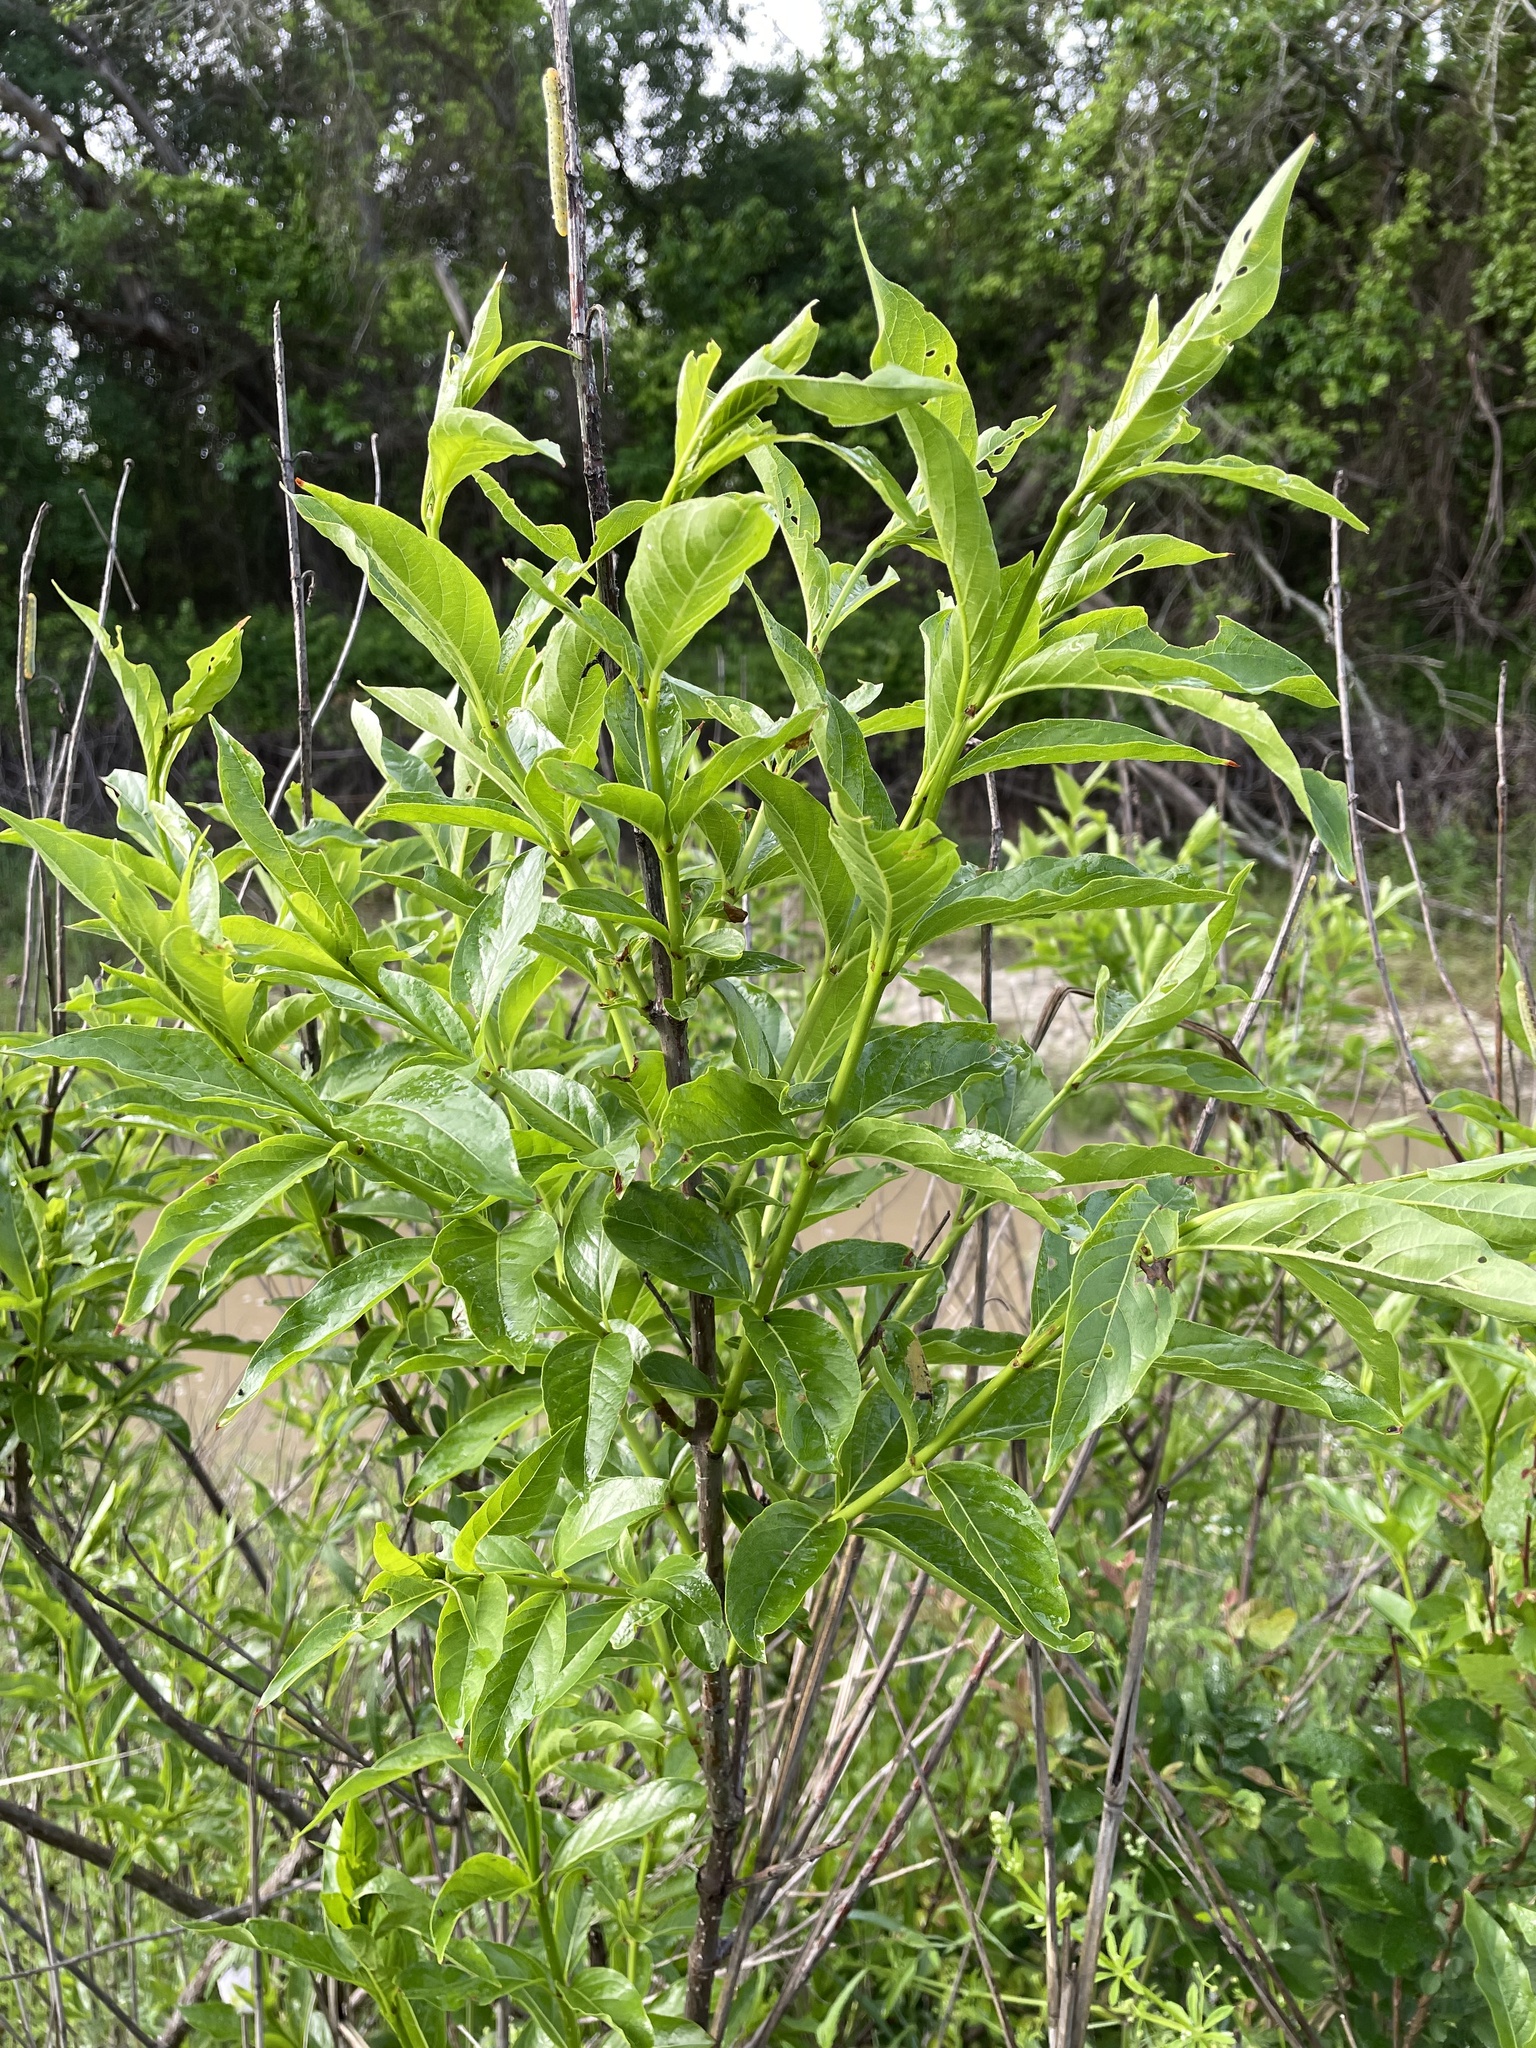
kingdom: Plantae
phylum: Tracheophyta
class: Magnoliopsida
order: Gentianales
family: Rubiaceae
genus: Cephalanthus
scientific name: Cephalanthus occidentalis
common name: Button-willow
